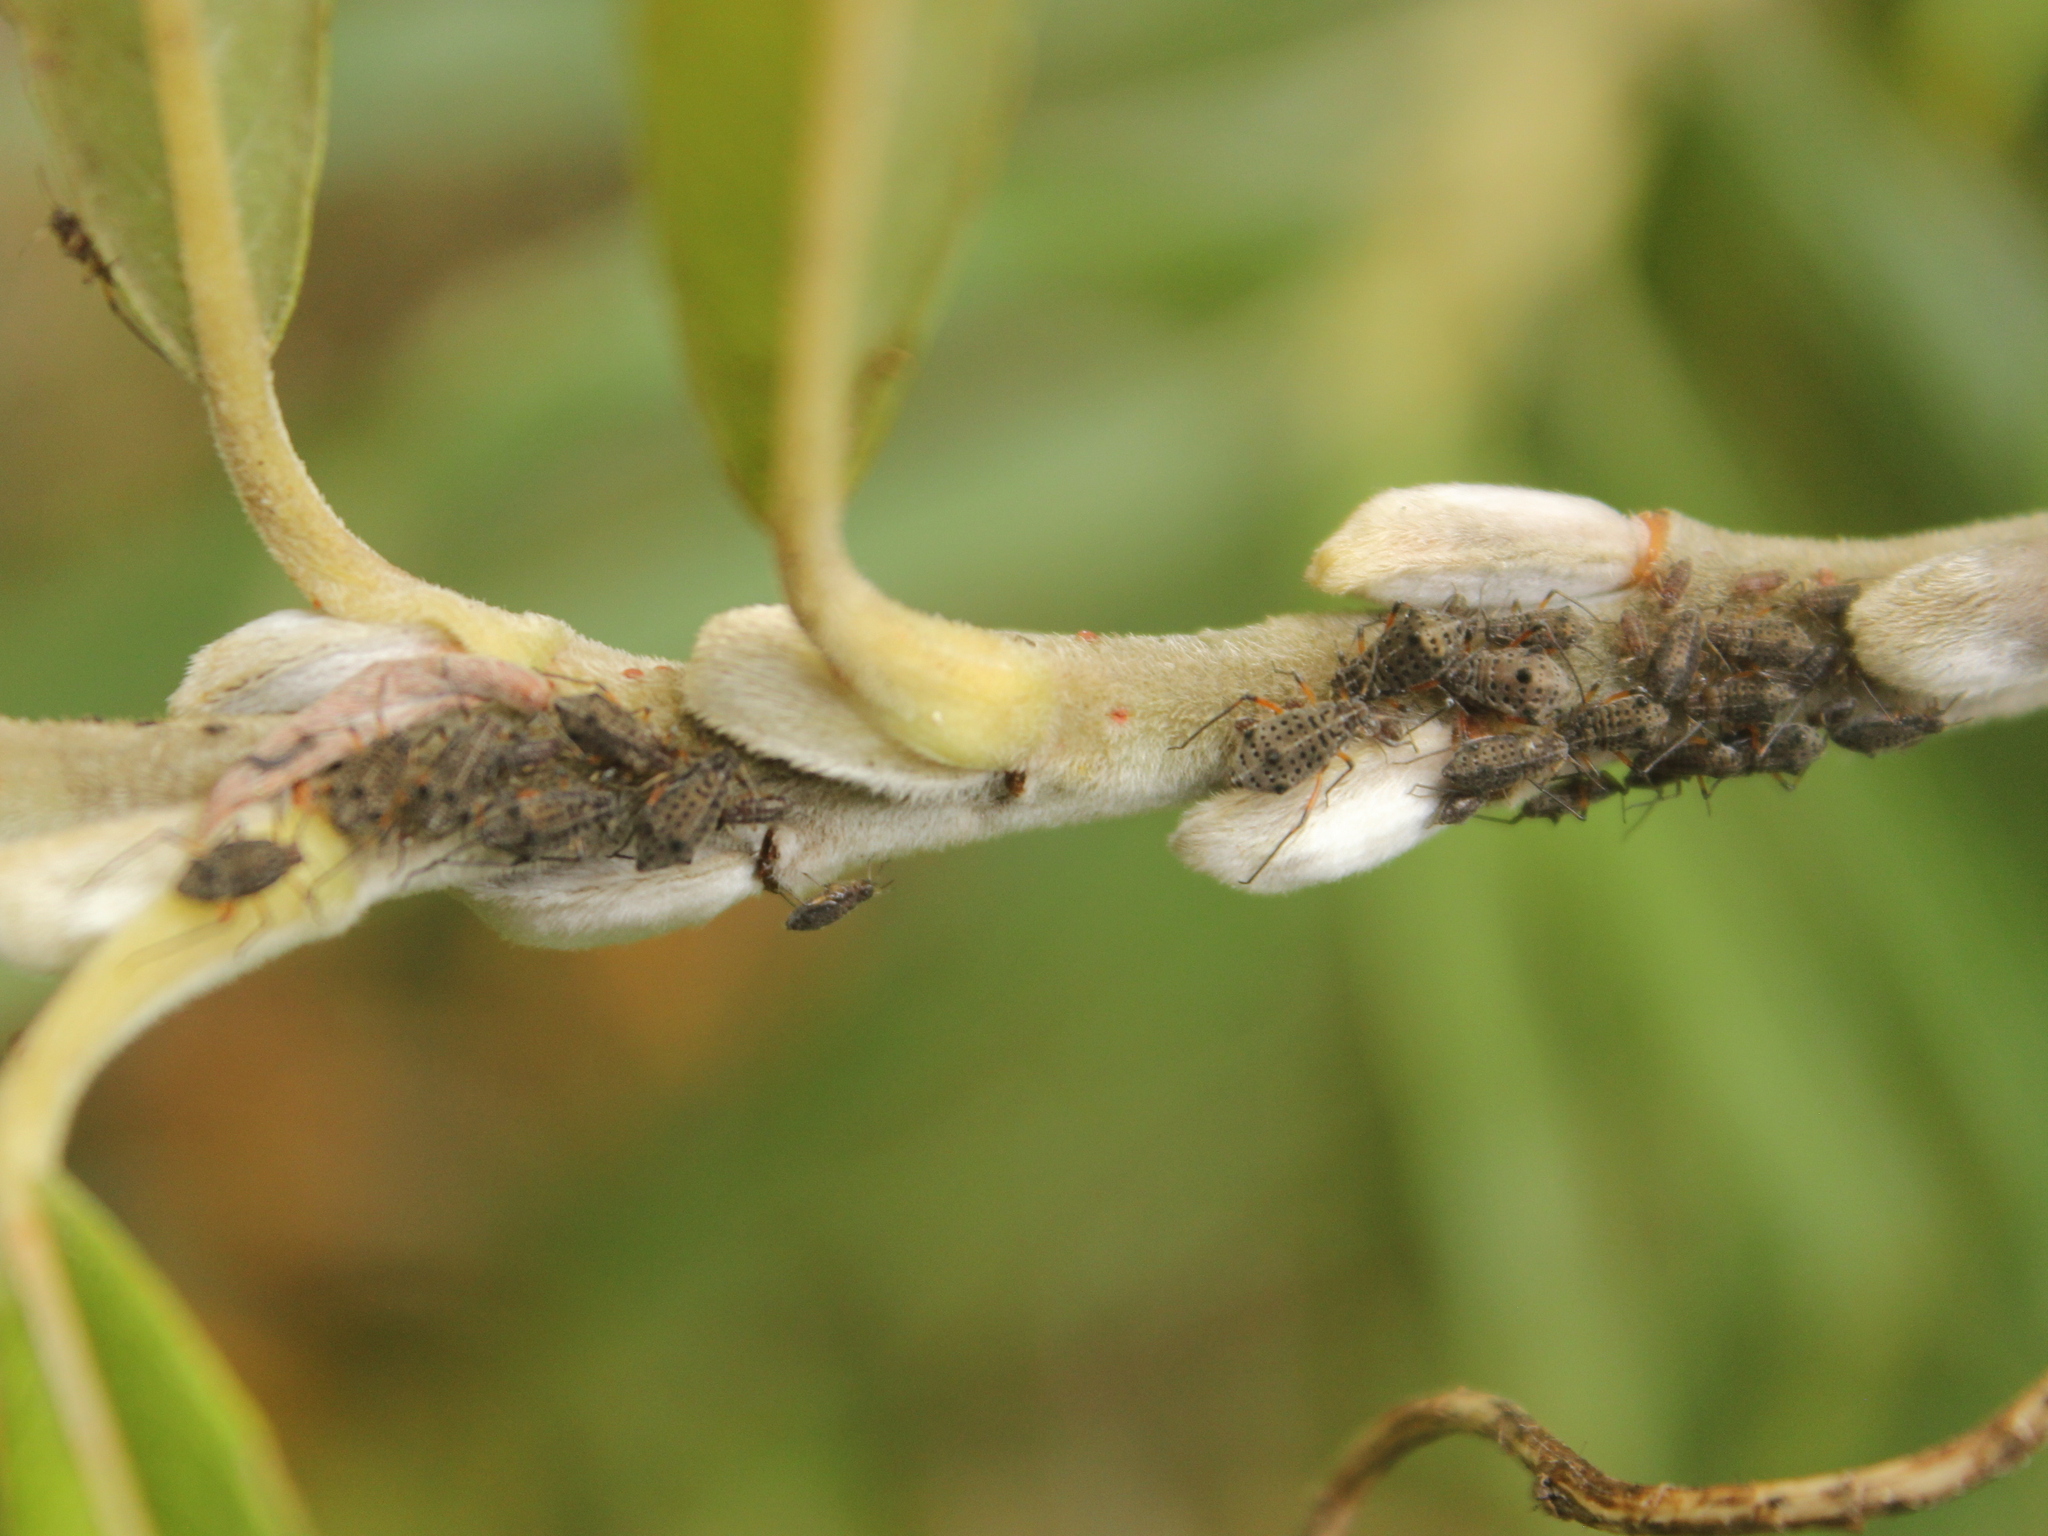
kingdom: Animalia
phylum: Arthropoda
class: Insecta
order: Hemiptera
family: Aphididae
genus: Tuberolachnus
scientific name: Tuberolachnus salignus
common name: Giant willow aphid
